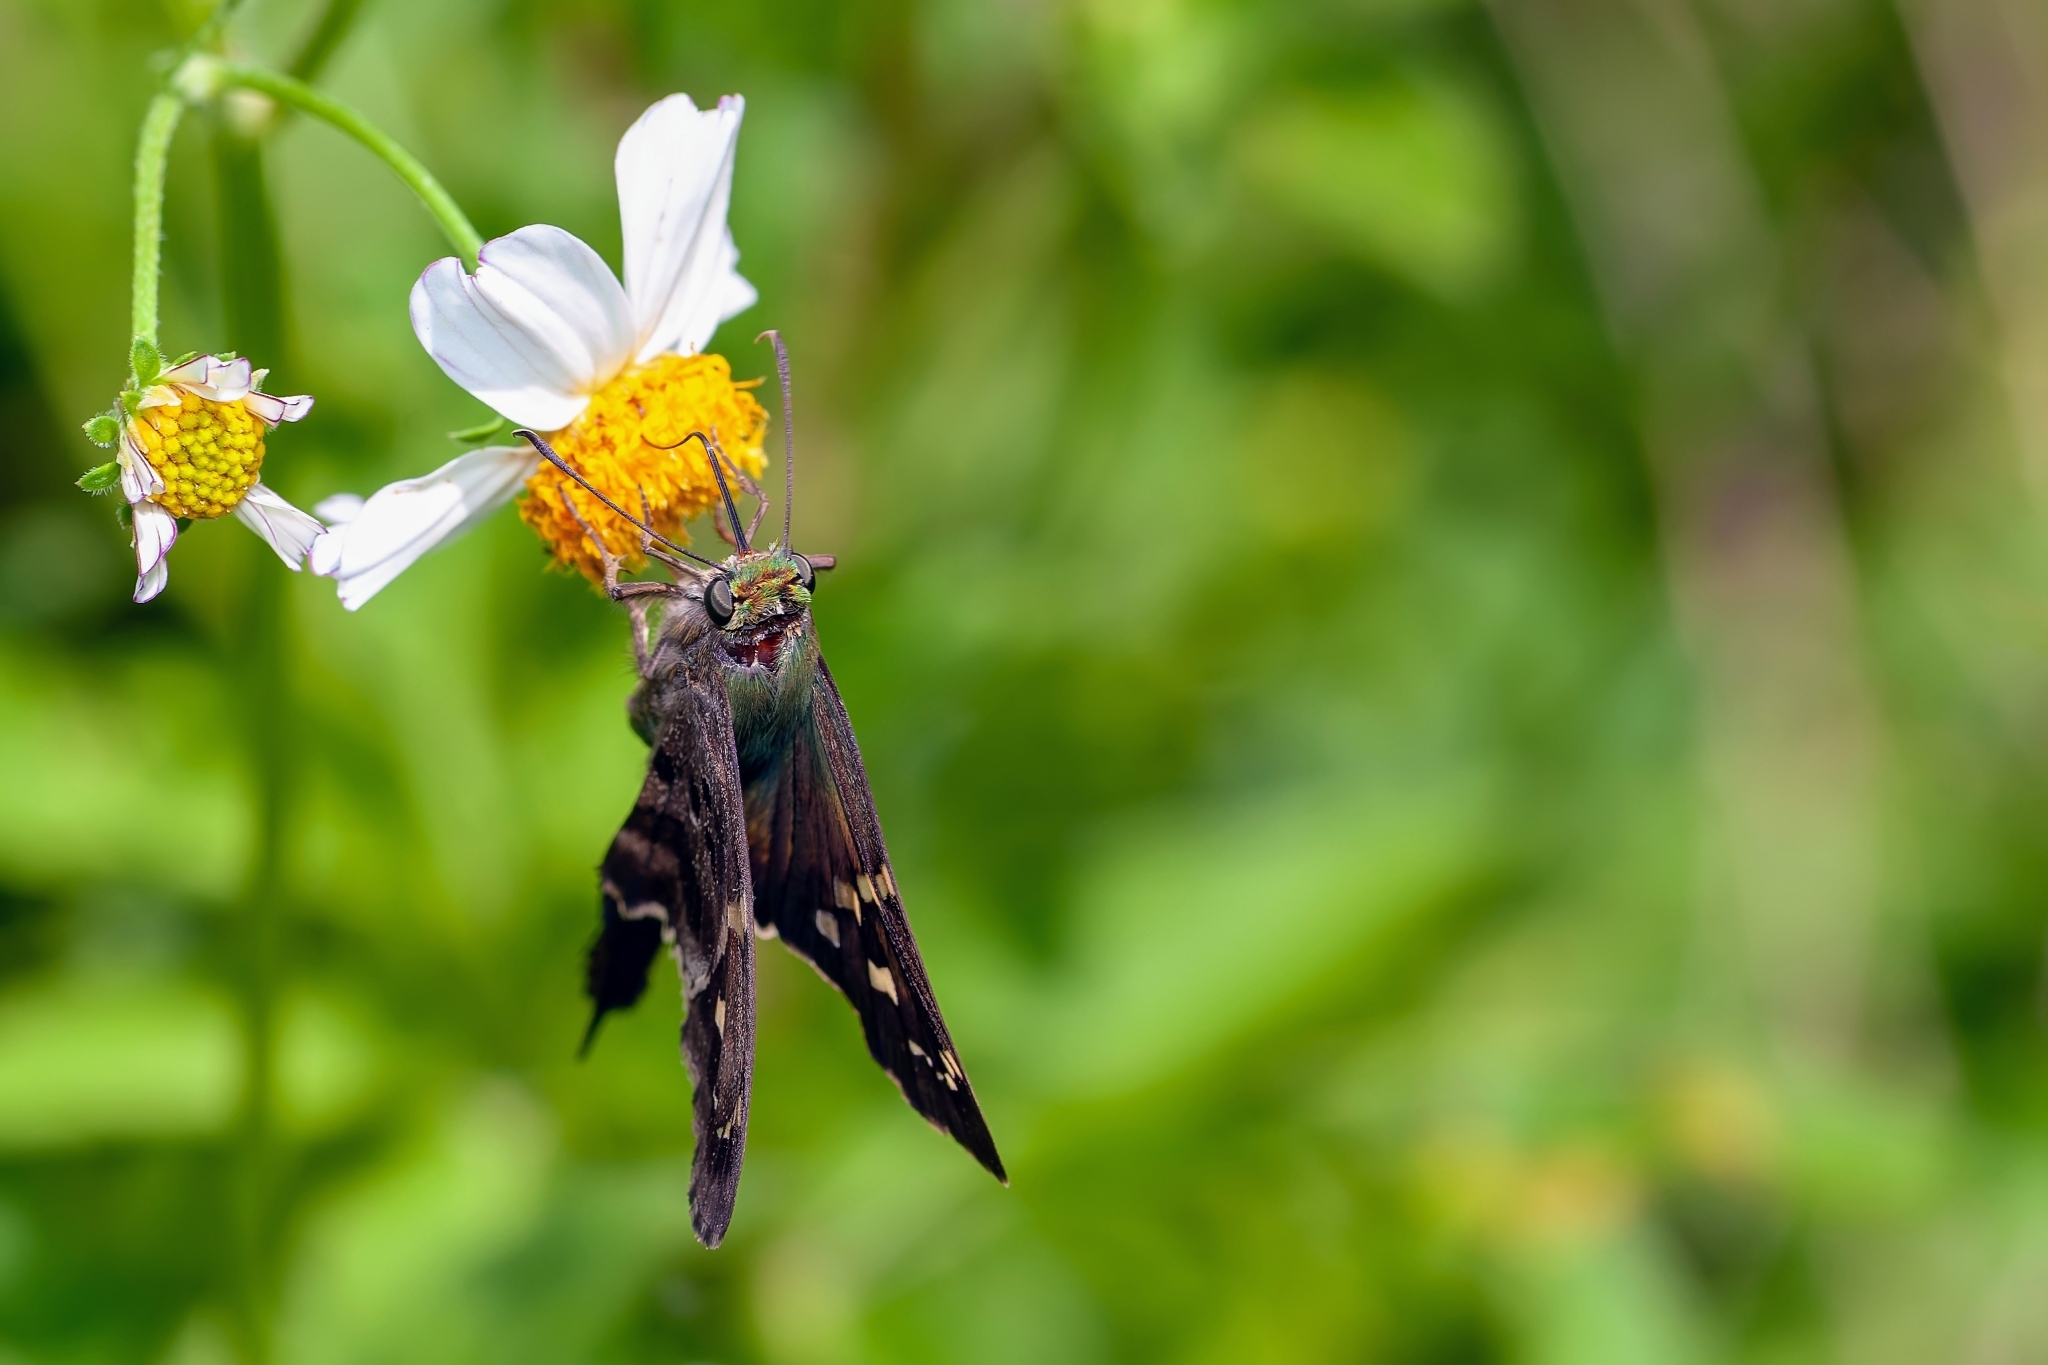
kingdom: Animalia
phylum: Arthropoda
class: Insecta
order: Lepidoptera
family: Hesperiidae
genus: Urbanus
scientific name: Urbanus proteus
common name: Long-tailed skipper
